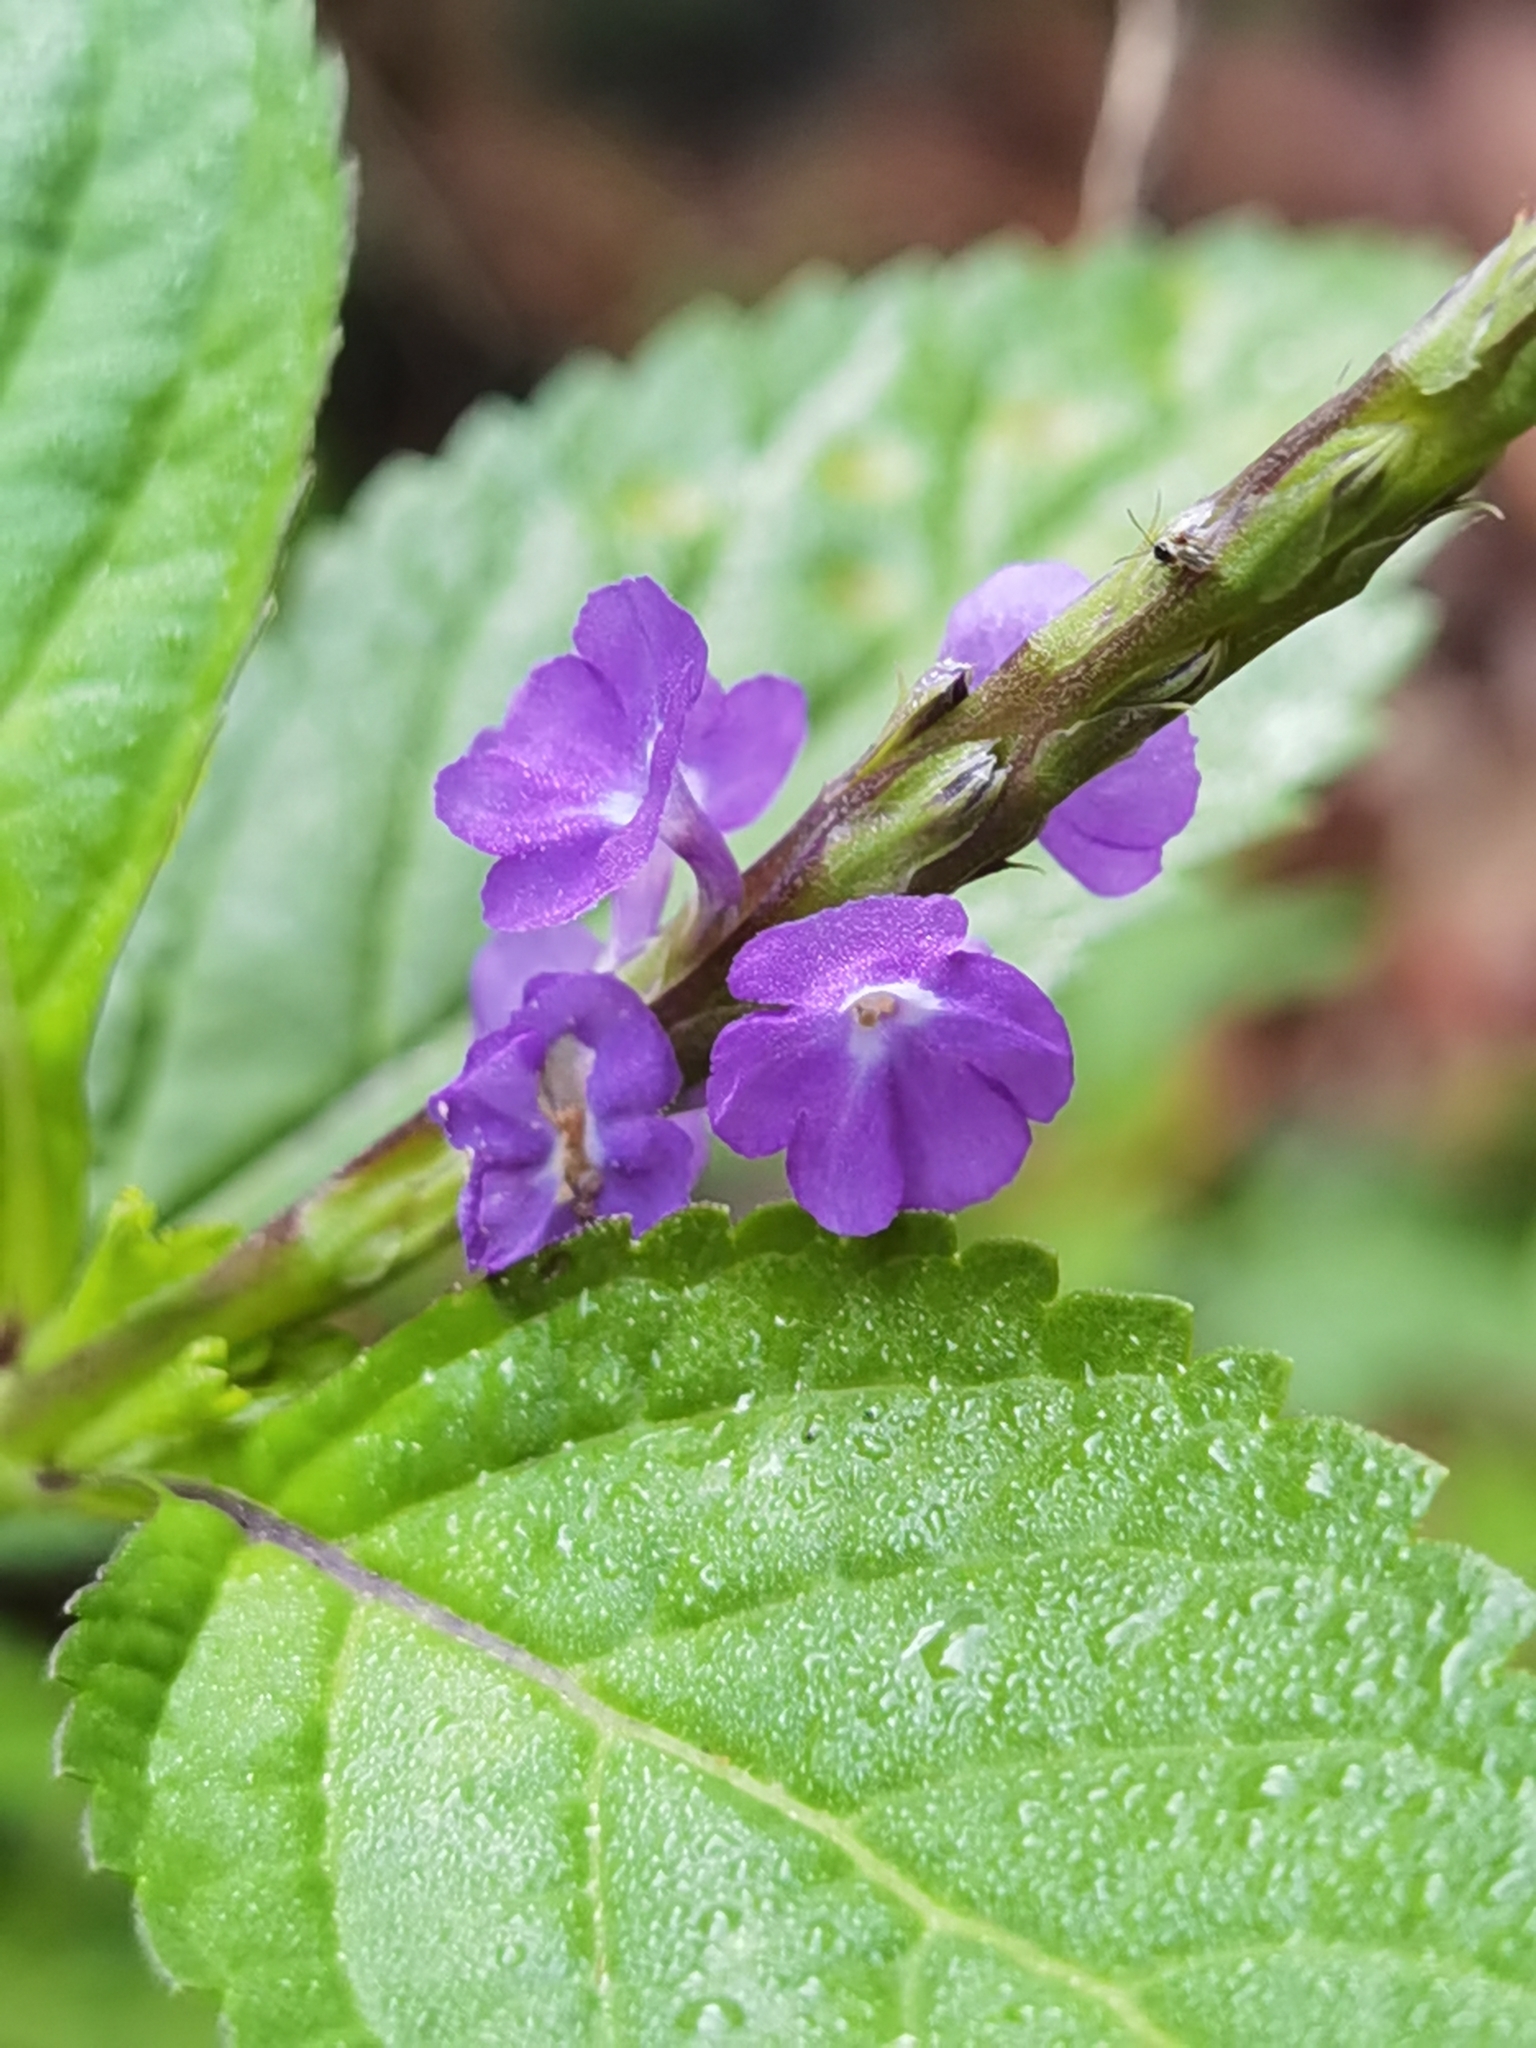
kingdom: Plantae
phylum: Tracheophyta
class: Magnoliopsida
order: Lamiales
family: Verbenaceae
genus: Stachytarpheta
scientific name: Stachytarpheta jamaicensis
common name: Light-blue snakeweed
